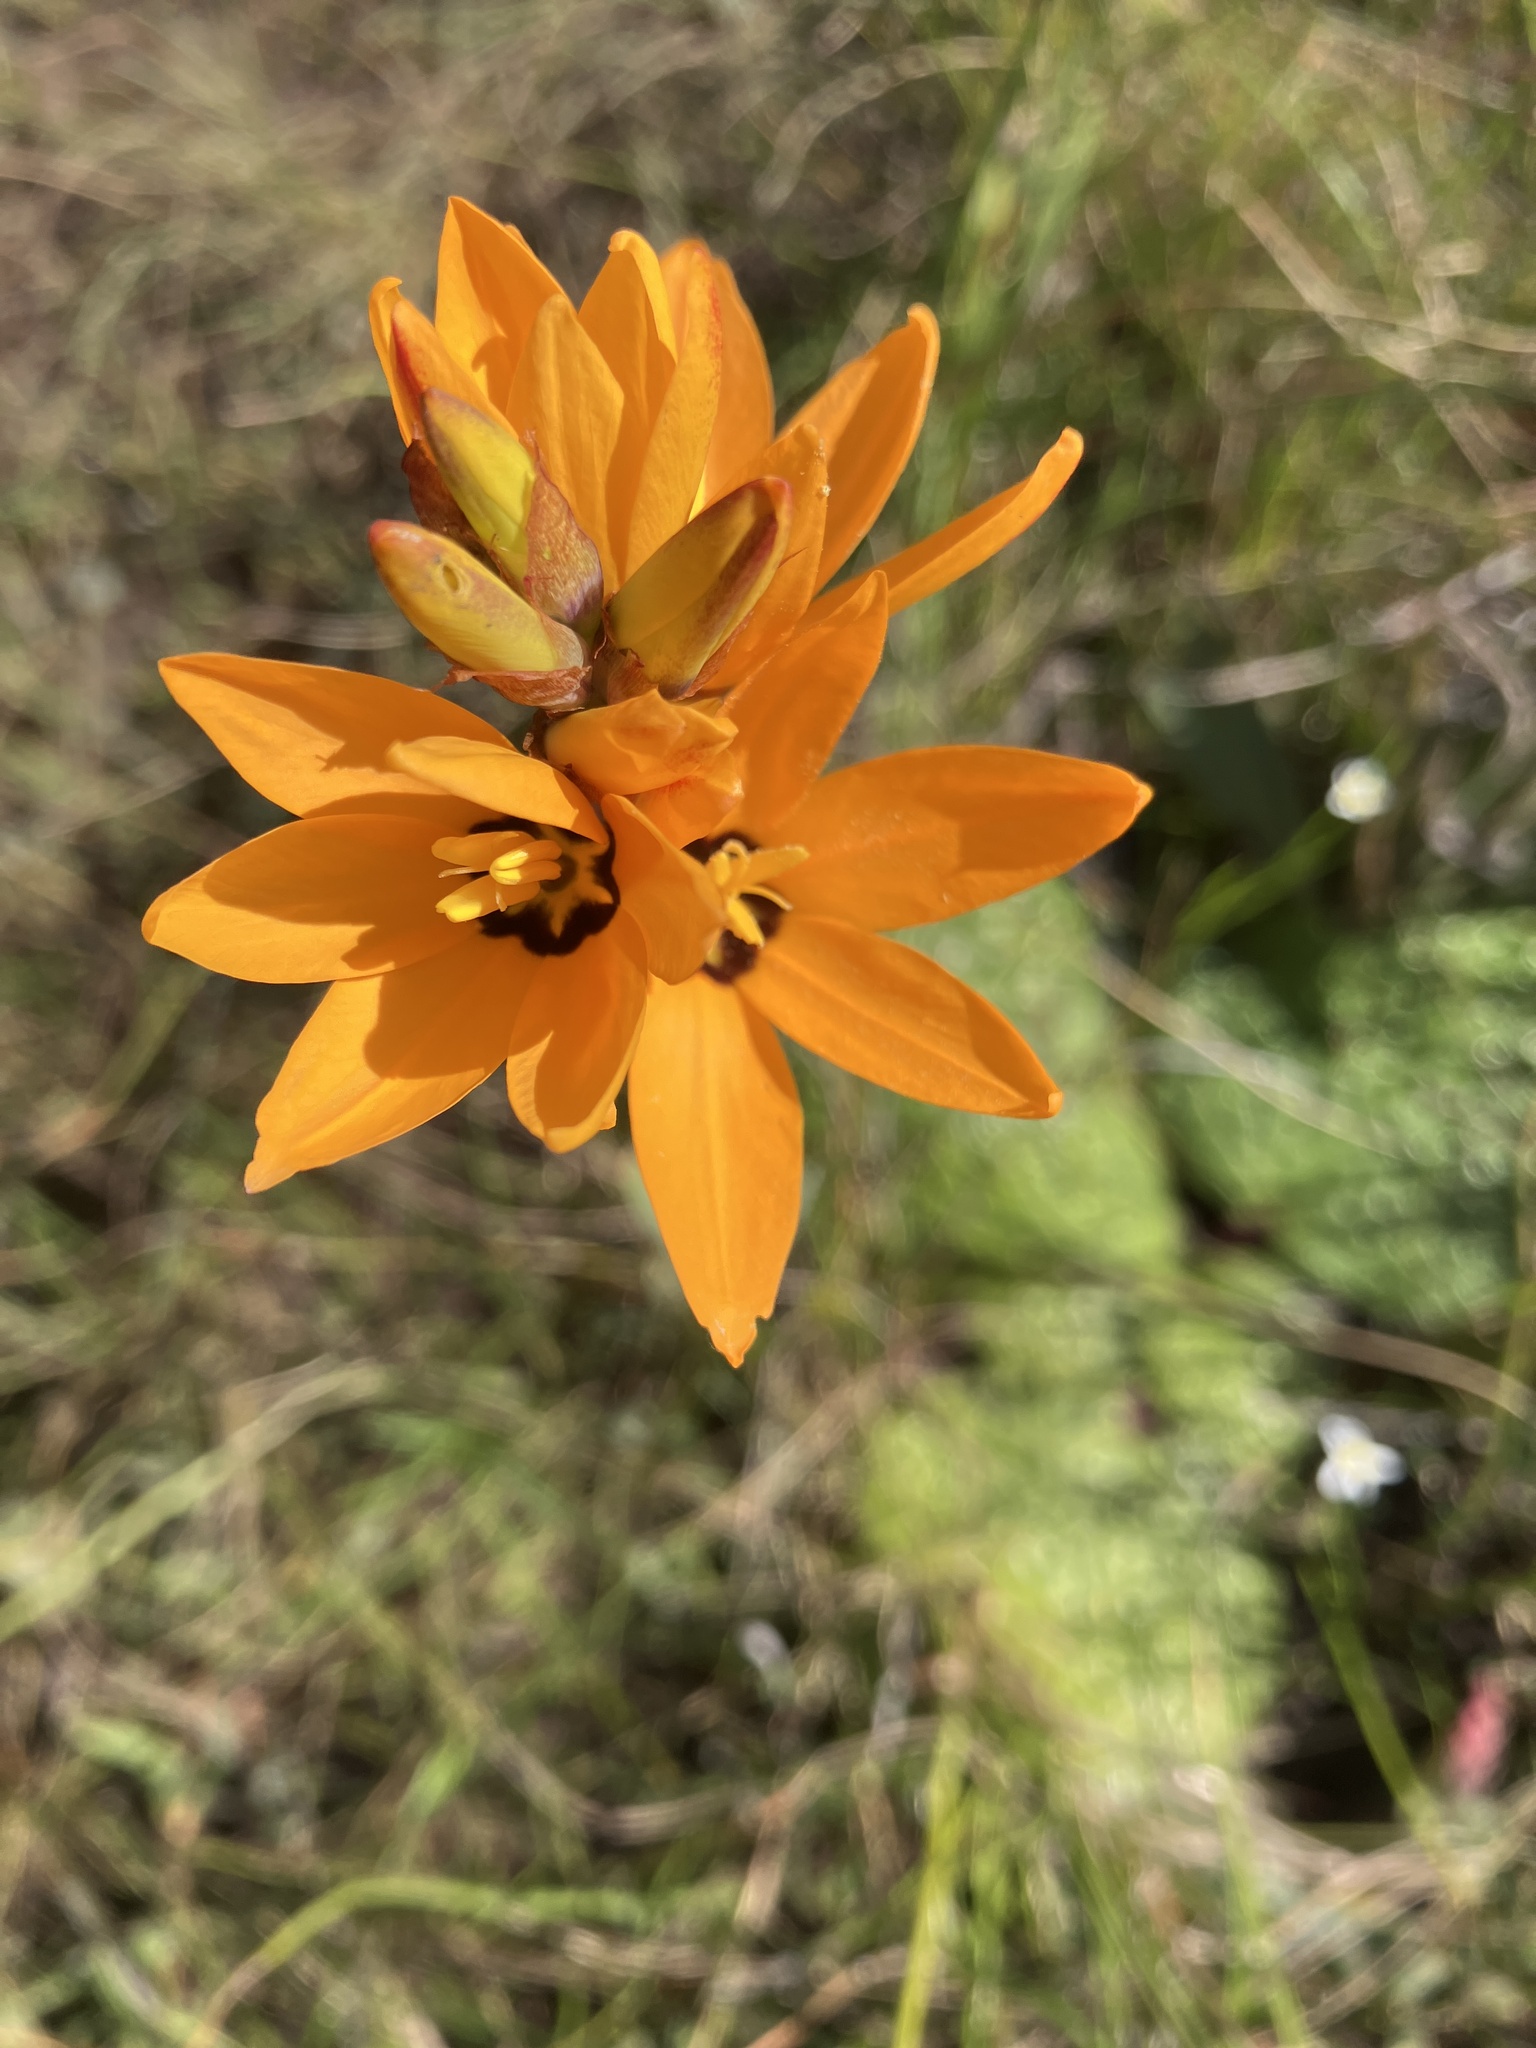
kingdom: Plantae
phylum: Tracheophyta
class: Liliopsida
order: Asparagales
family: Iridaceae
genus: Ixia
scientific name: Ixia maculata
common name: Spotted african cornlily
